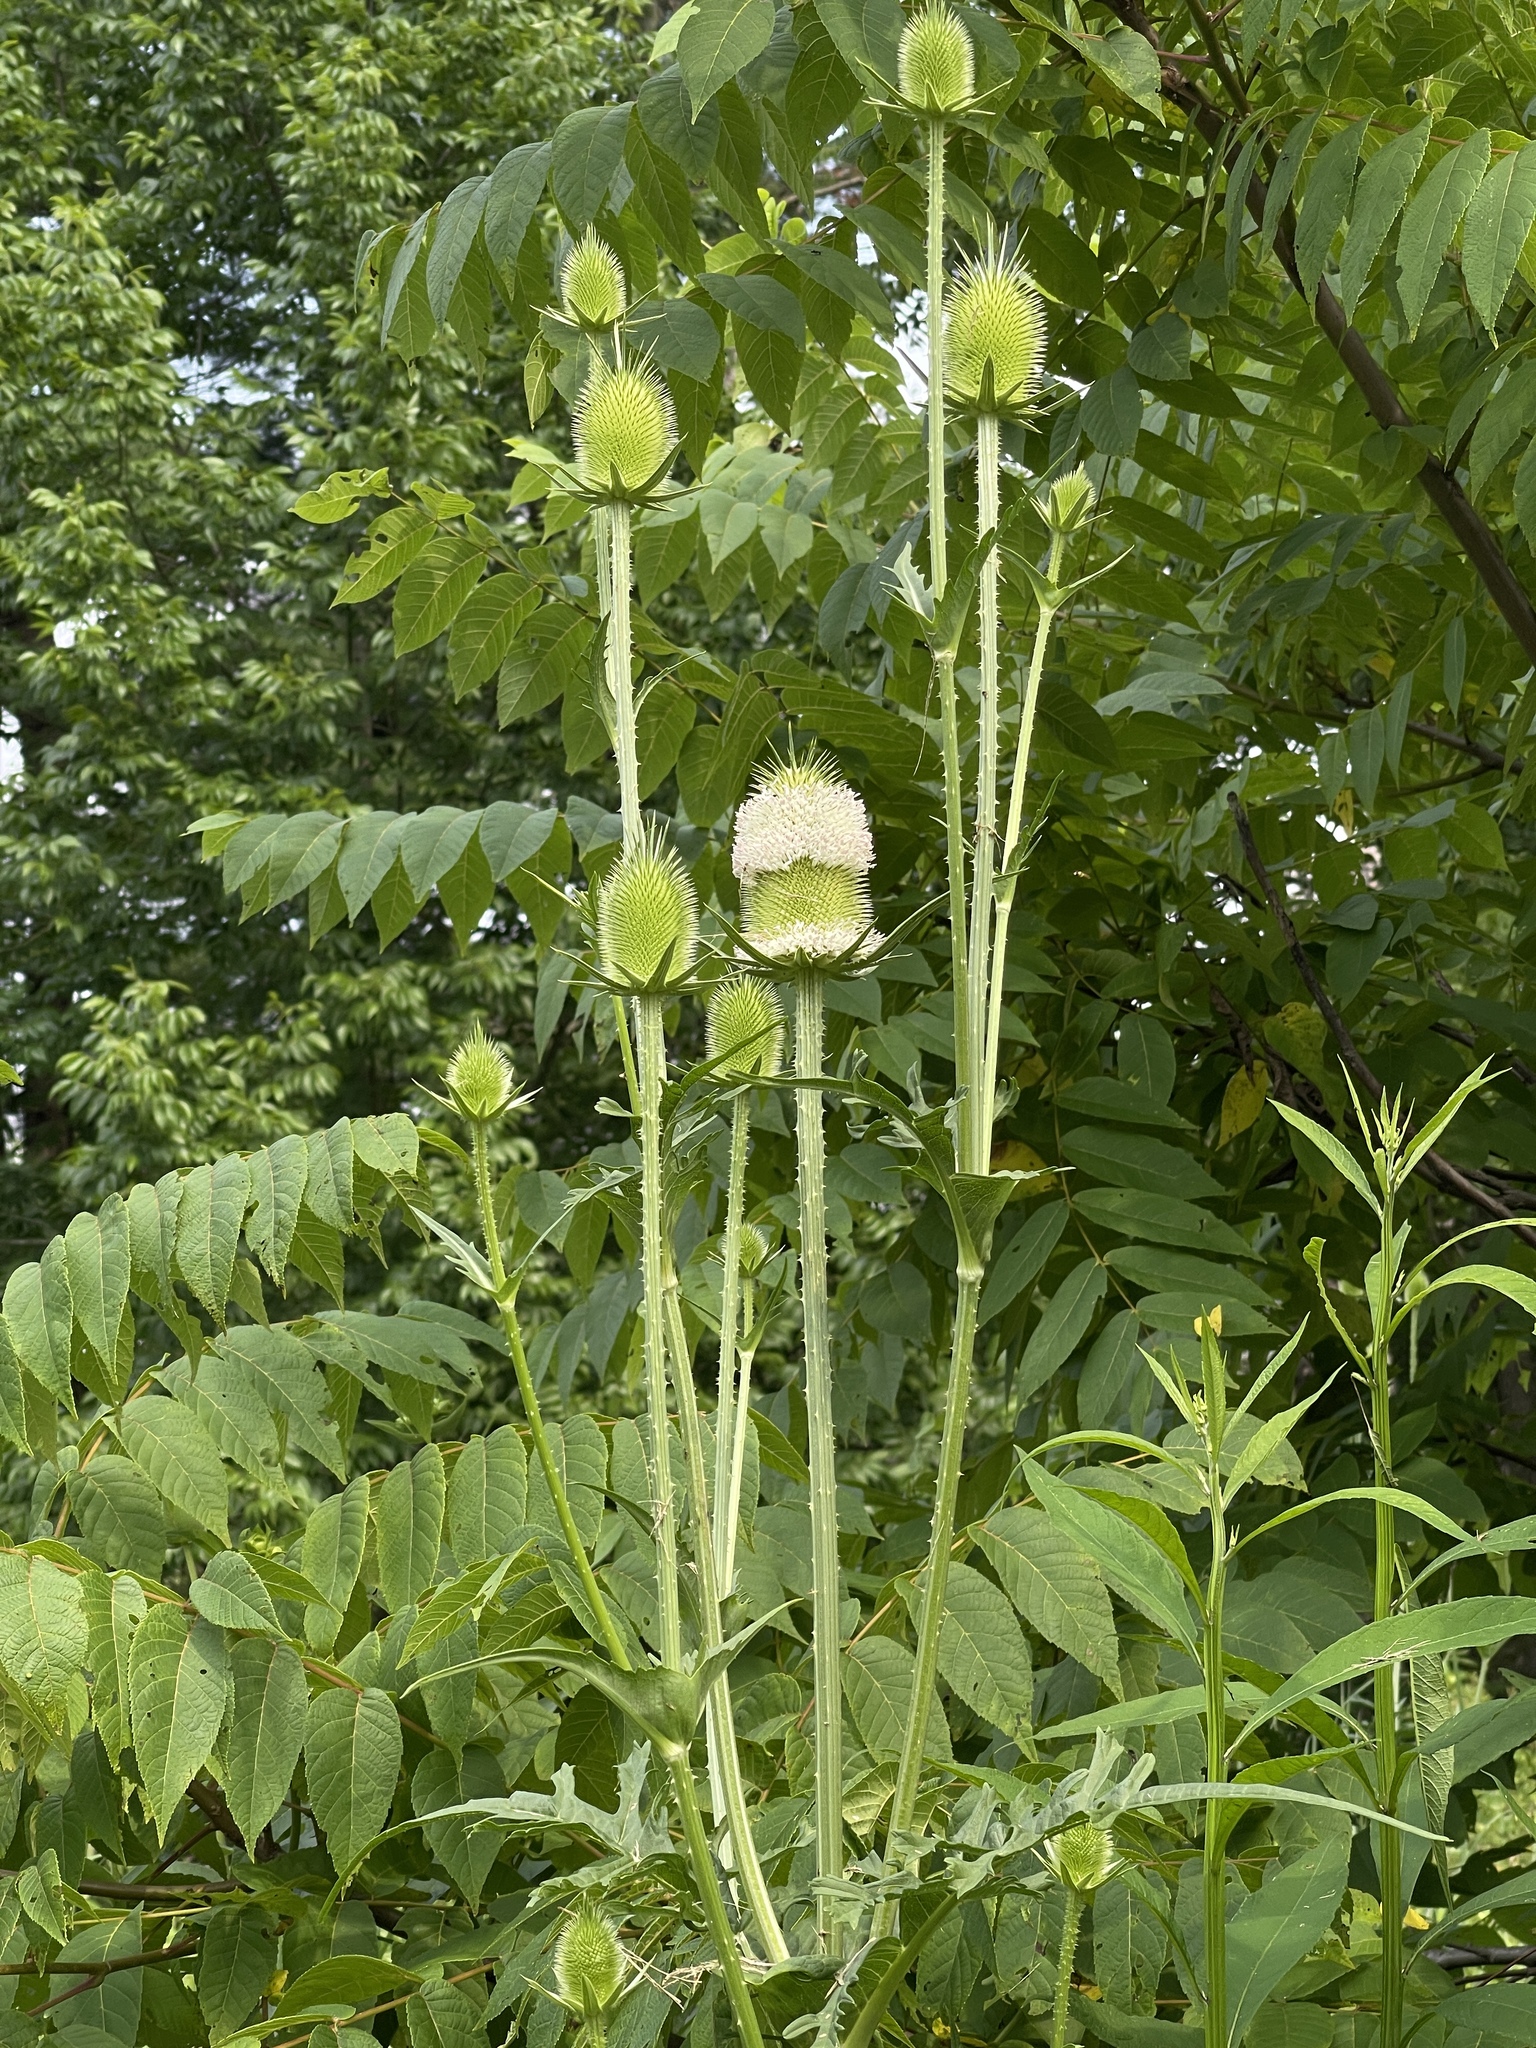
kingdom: Plantae
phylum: Tracheophyta
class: Magnoliopsida
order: Dipsacales
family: Caprifoliaceae
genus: Dipsacus
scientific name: Dipsacus laciniatus
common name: Cut-leaved teasel
